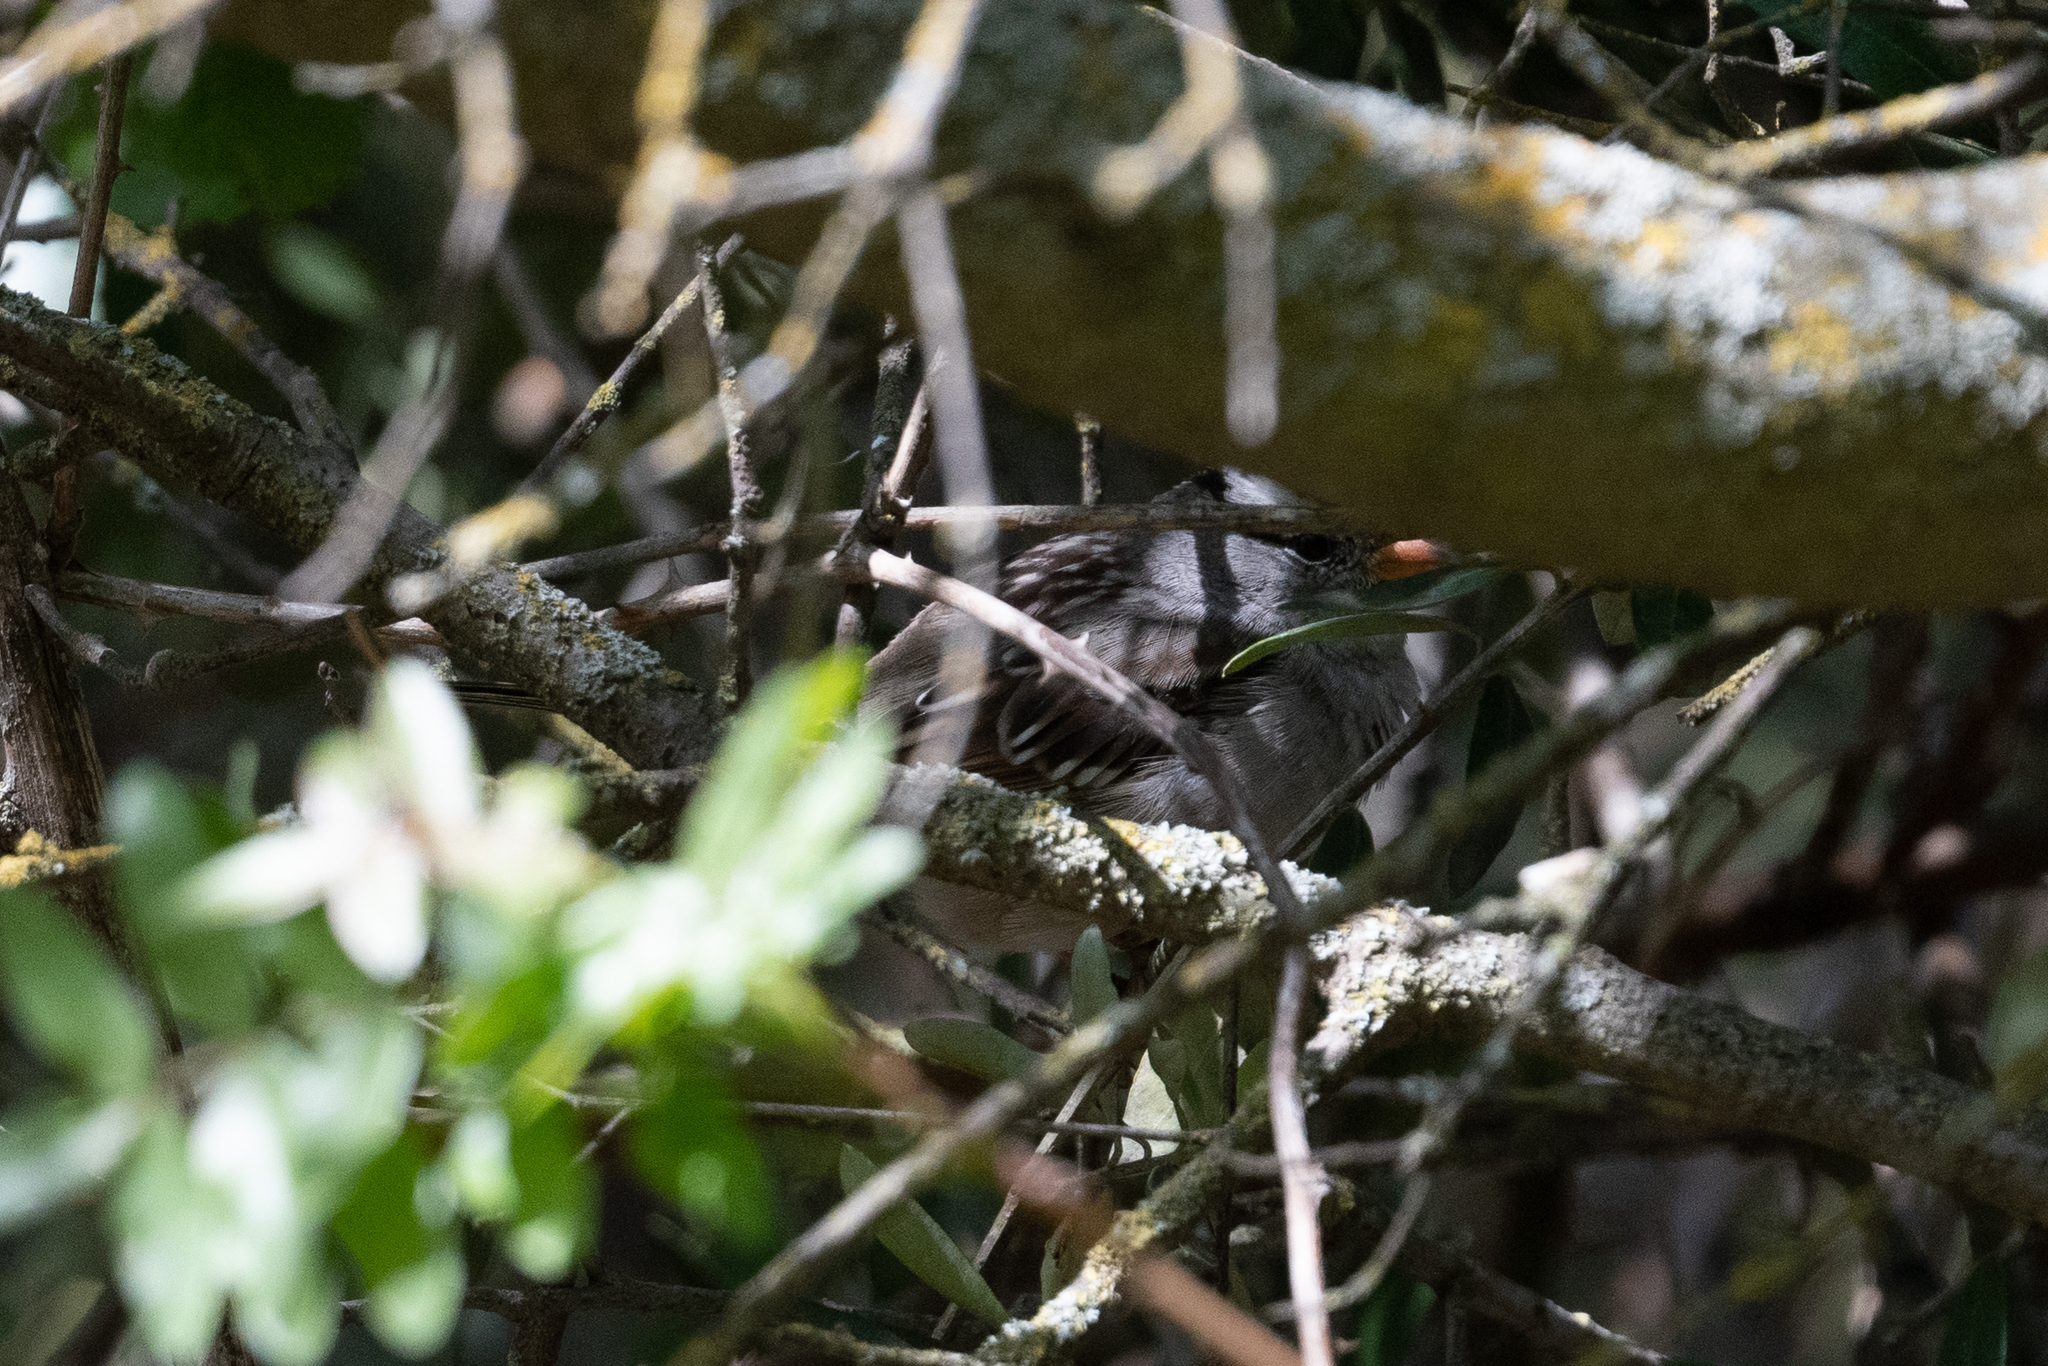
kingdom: Animalia
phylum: Chordata
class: Aves
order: Passeriformes
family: Passerellidae
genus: Zonotrichia
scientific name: Zonotrichia leucophrys
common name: White-crowned sparrow
